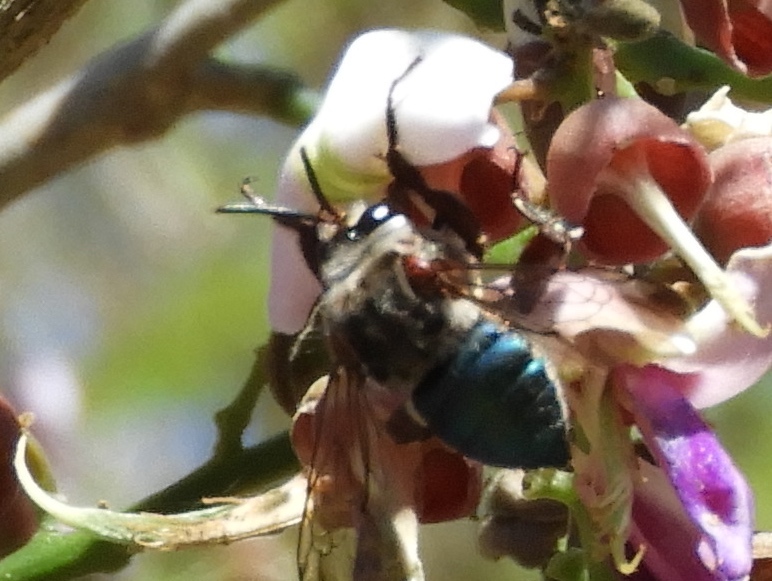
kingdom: Animalia
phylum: Arthropoda
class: Insecta
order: Hymenoptera
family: Apidae
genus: Mesoplia
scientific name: Mesoplia
